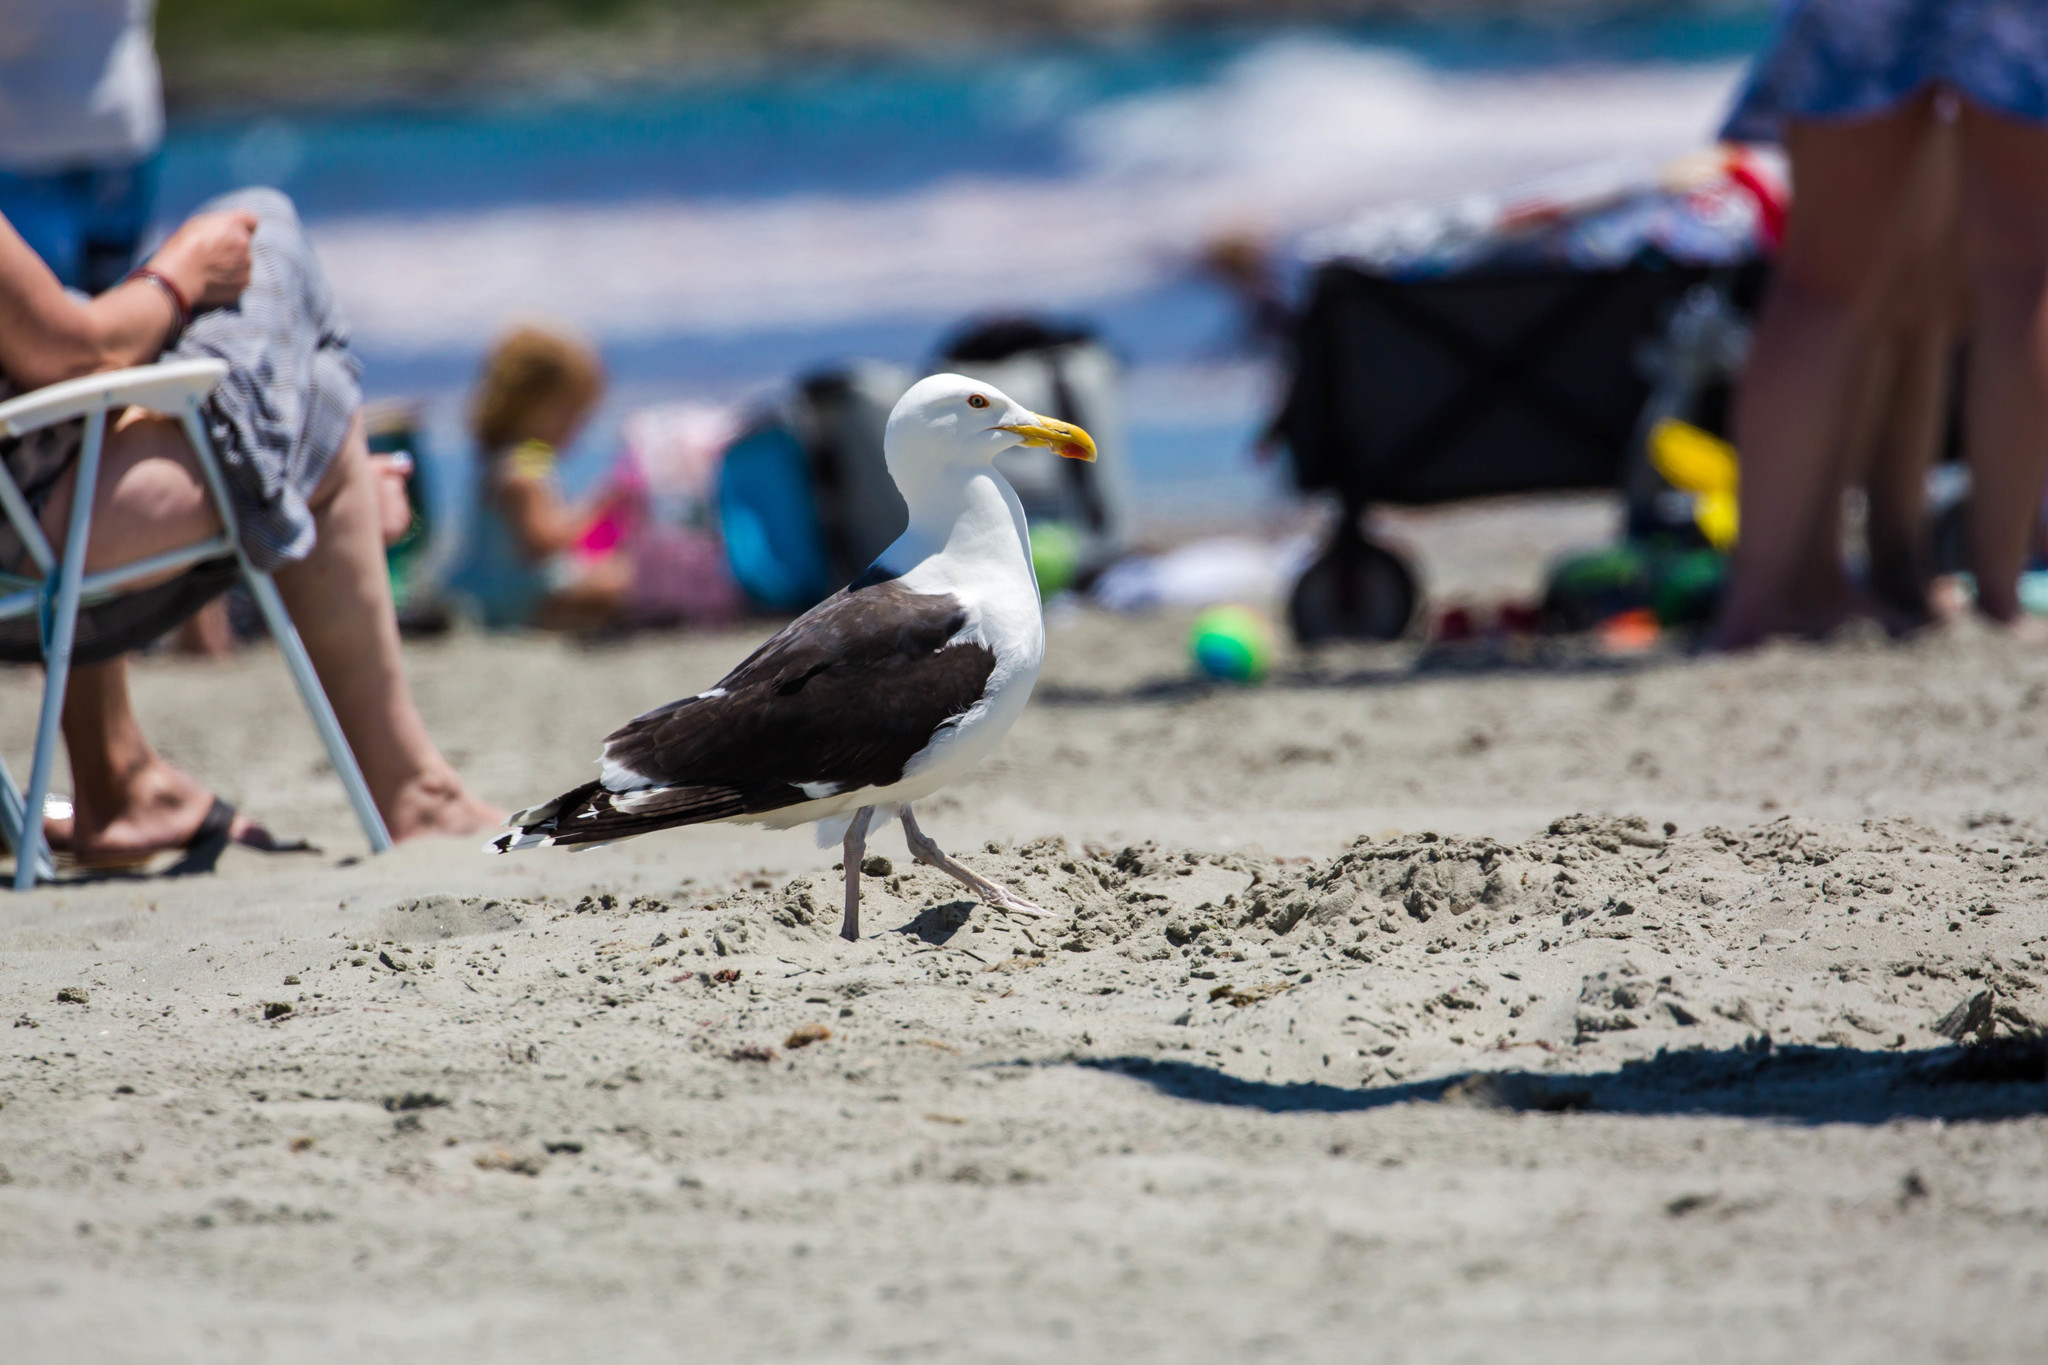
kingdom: Animalia
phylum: Chordata
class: Aves
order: Charadriiformes
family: Laridae
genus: Larus
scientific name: Larus marinus
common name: Great black-backed gull
